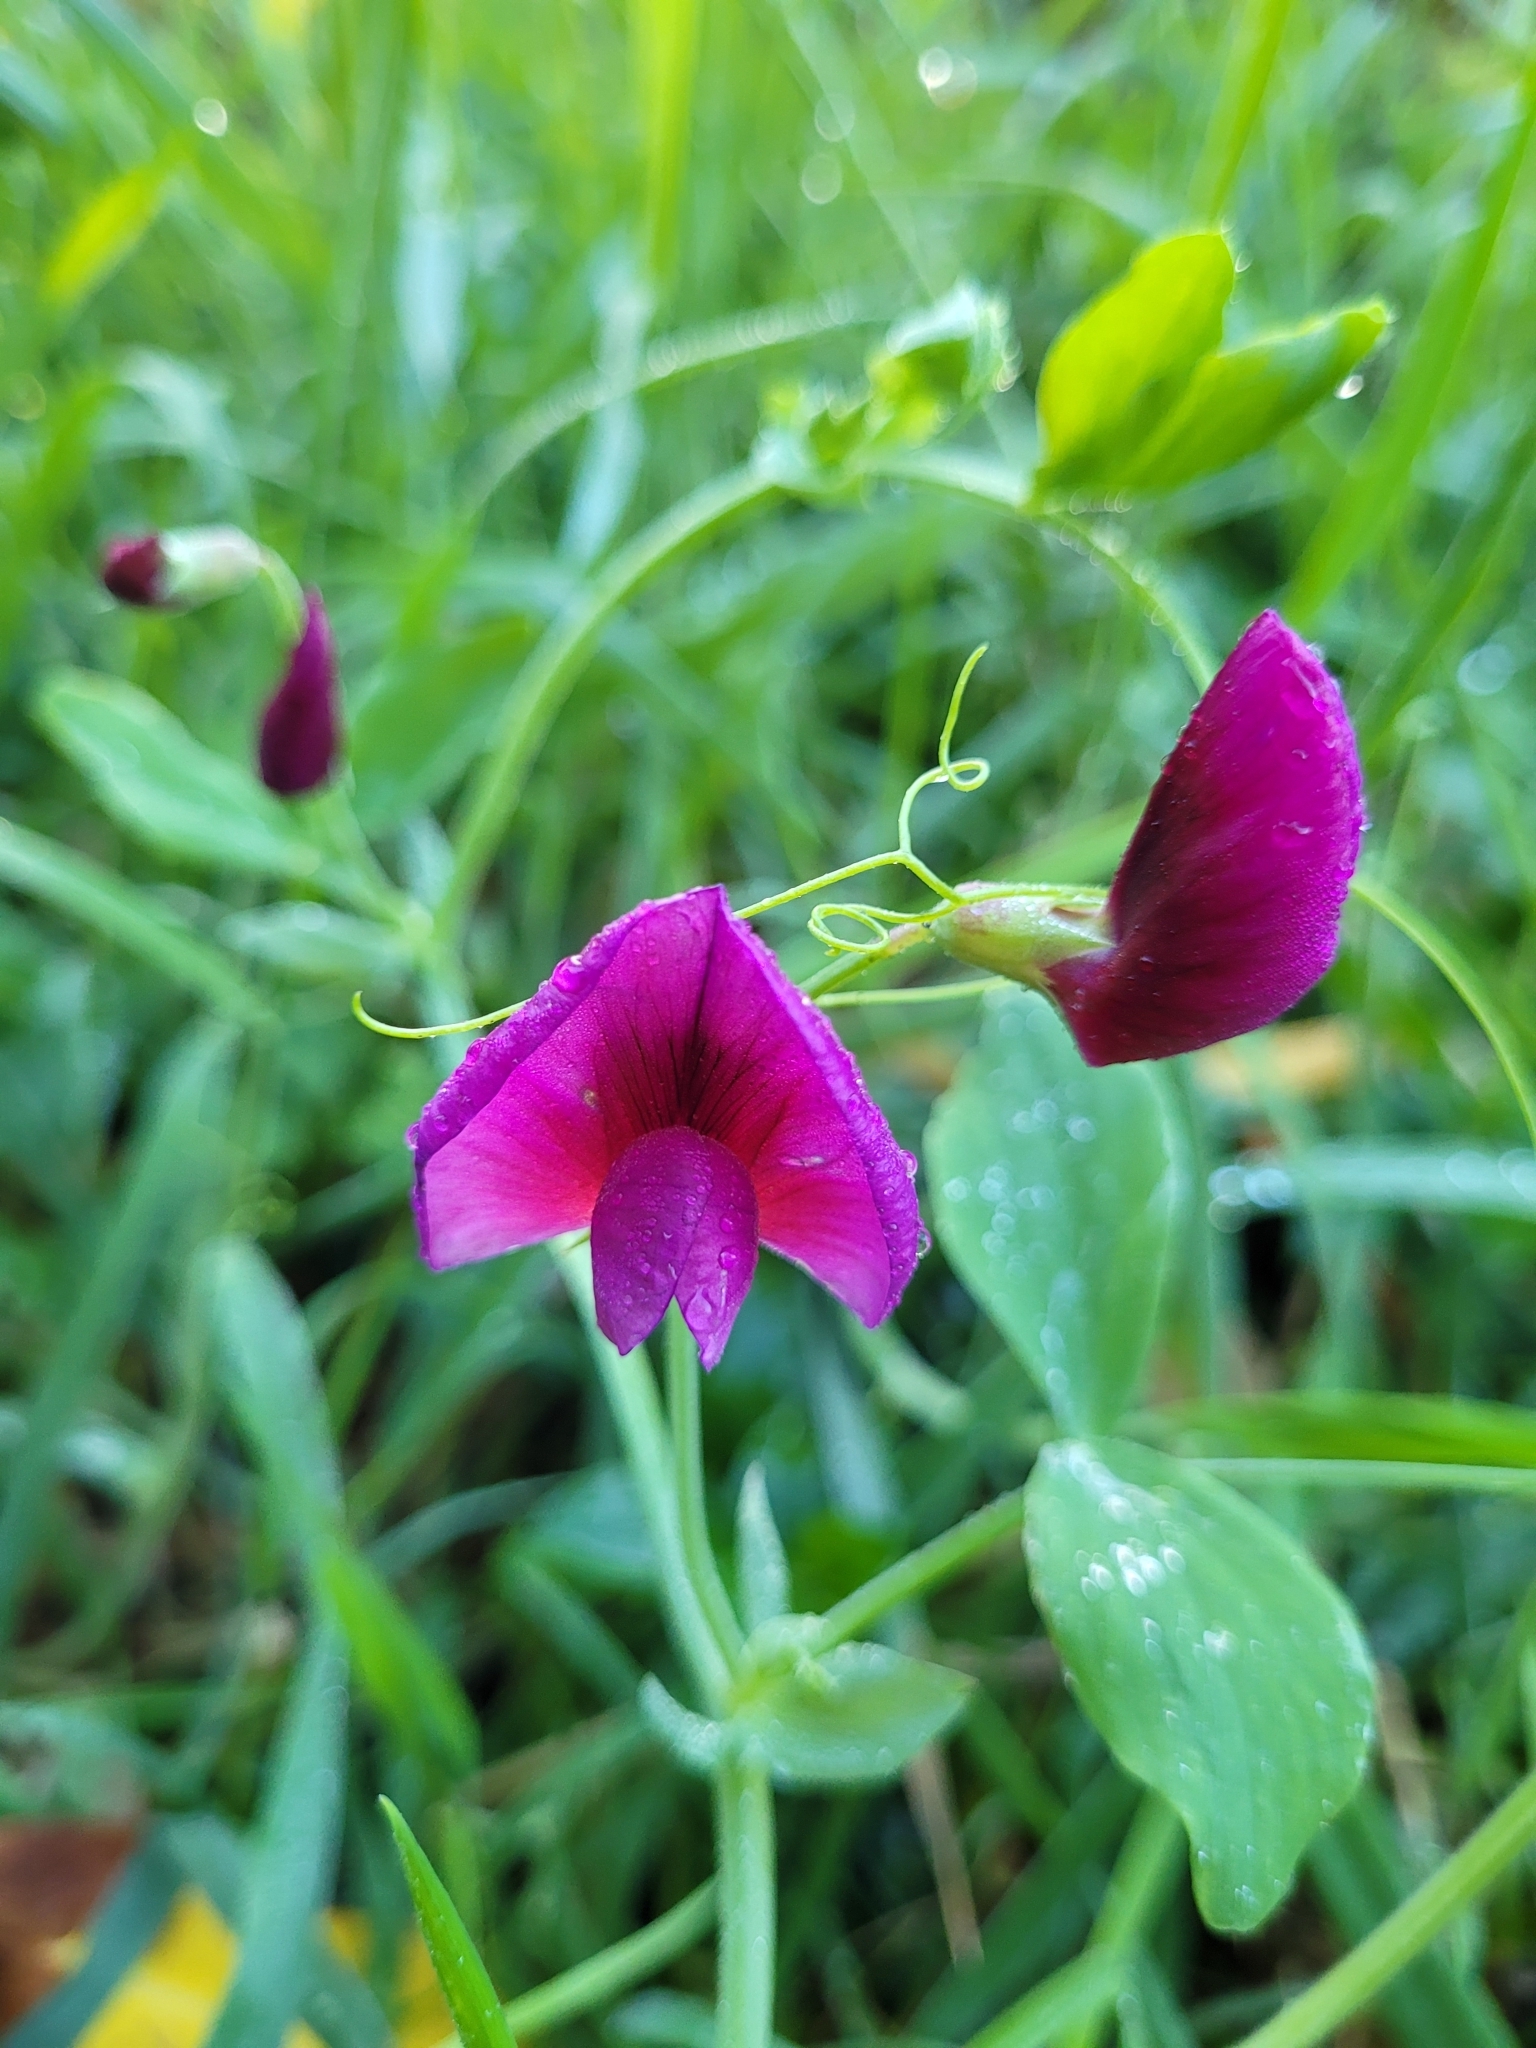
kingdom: Plantae
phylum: Tracheophyta
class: Magnoliopsida
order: Fabales
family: Fabaceae
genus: Lathyrus
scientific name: Lathyrus tingitanus
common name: Tangier pea
